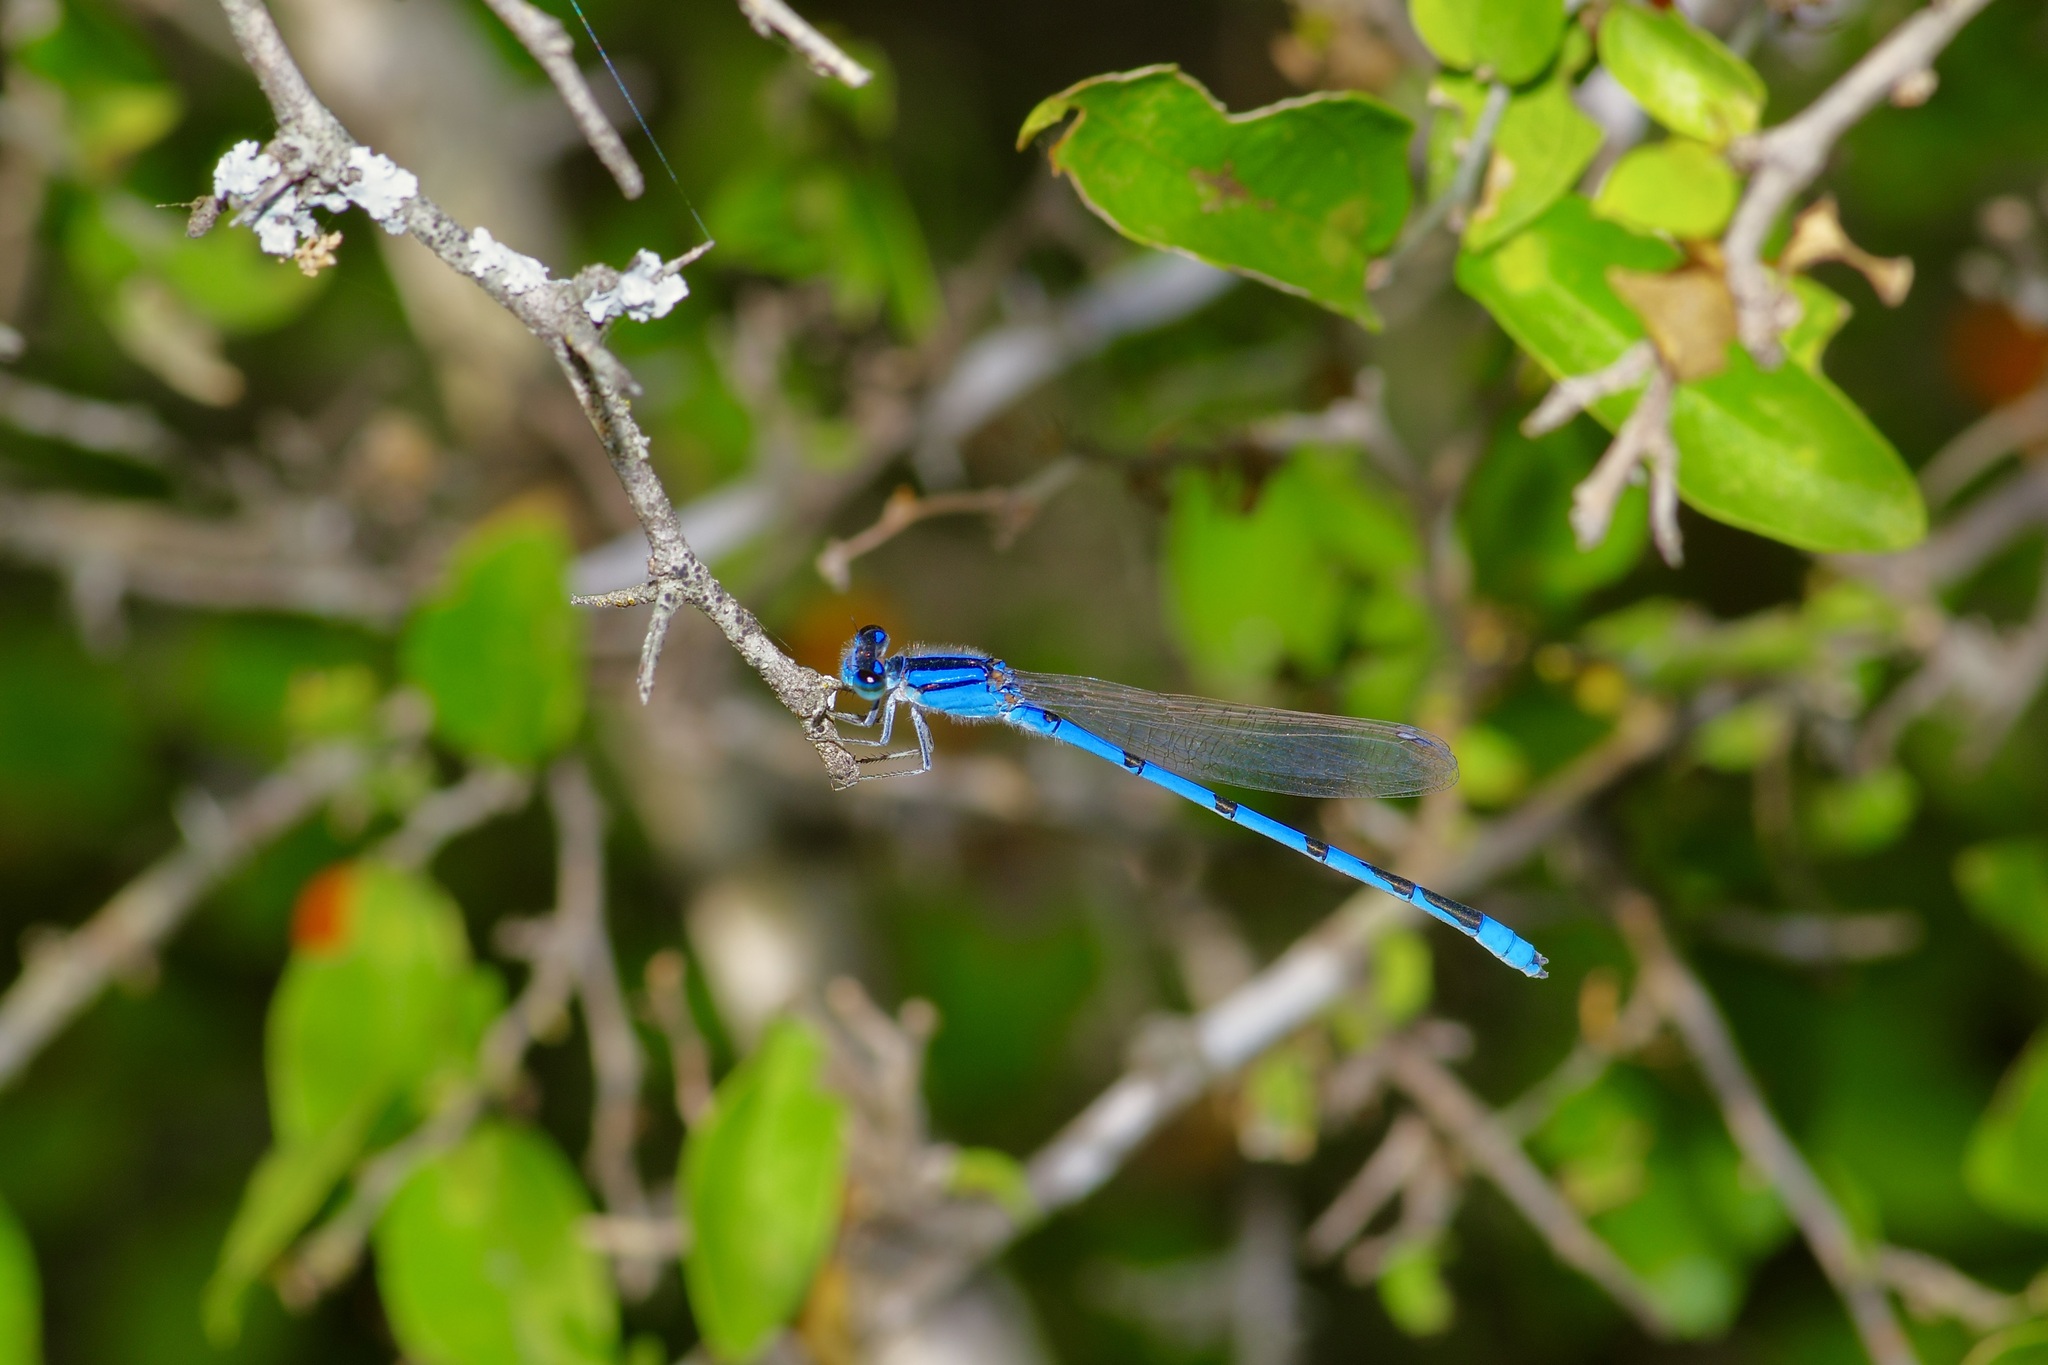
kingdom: Animalia
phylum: Arthropoda
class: Insecta
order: Odonata
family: Coenagrionidae
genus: Enallagma
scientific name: Enallagma civile
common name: Damselfly
